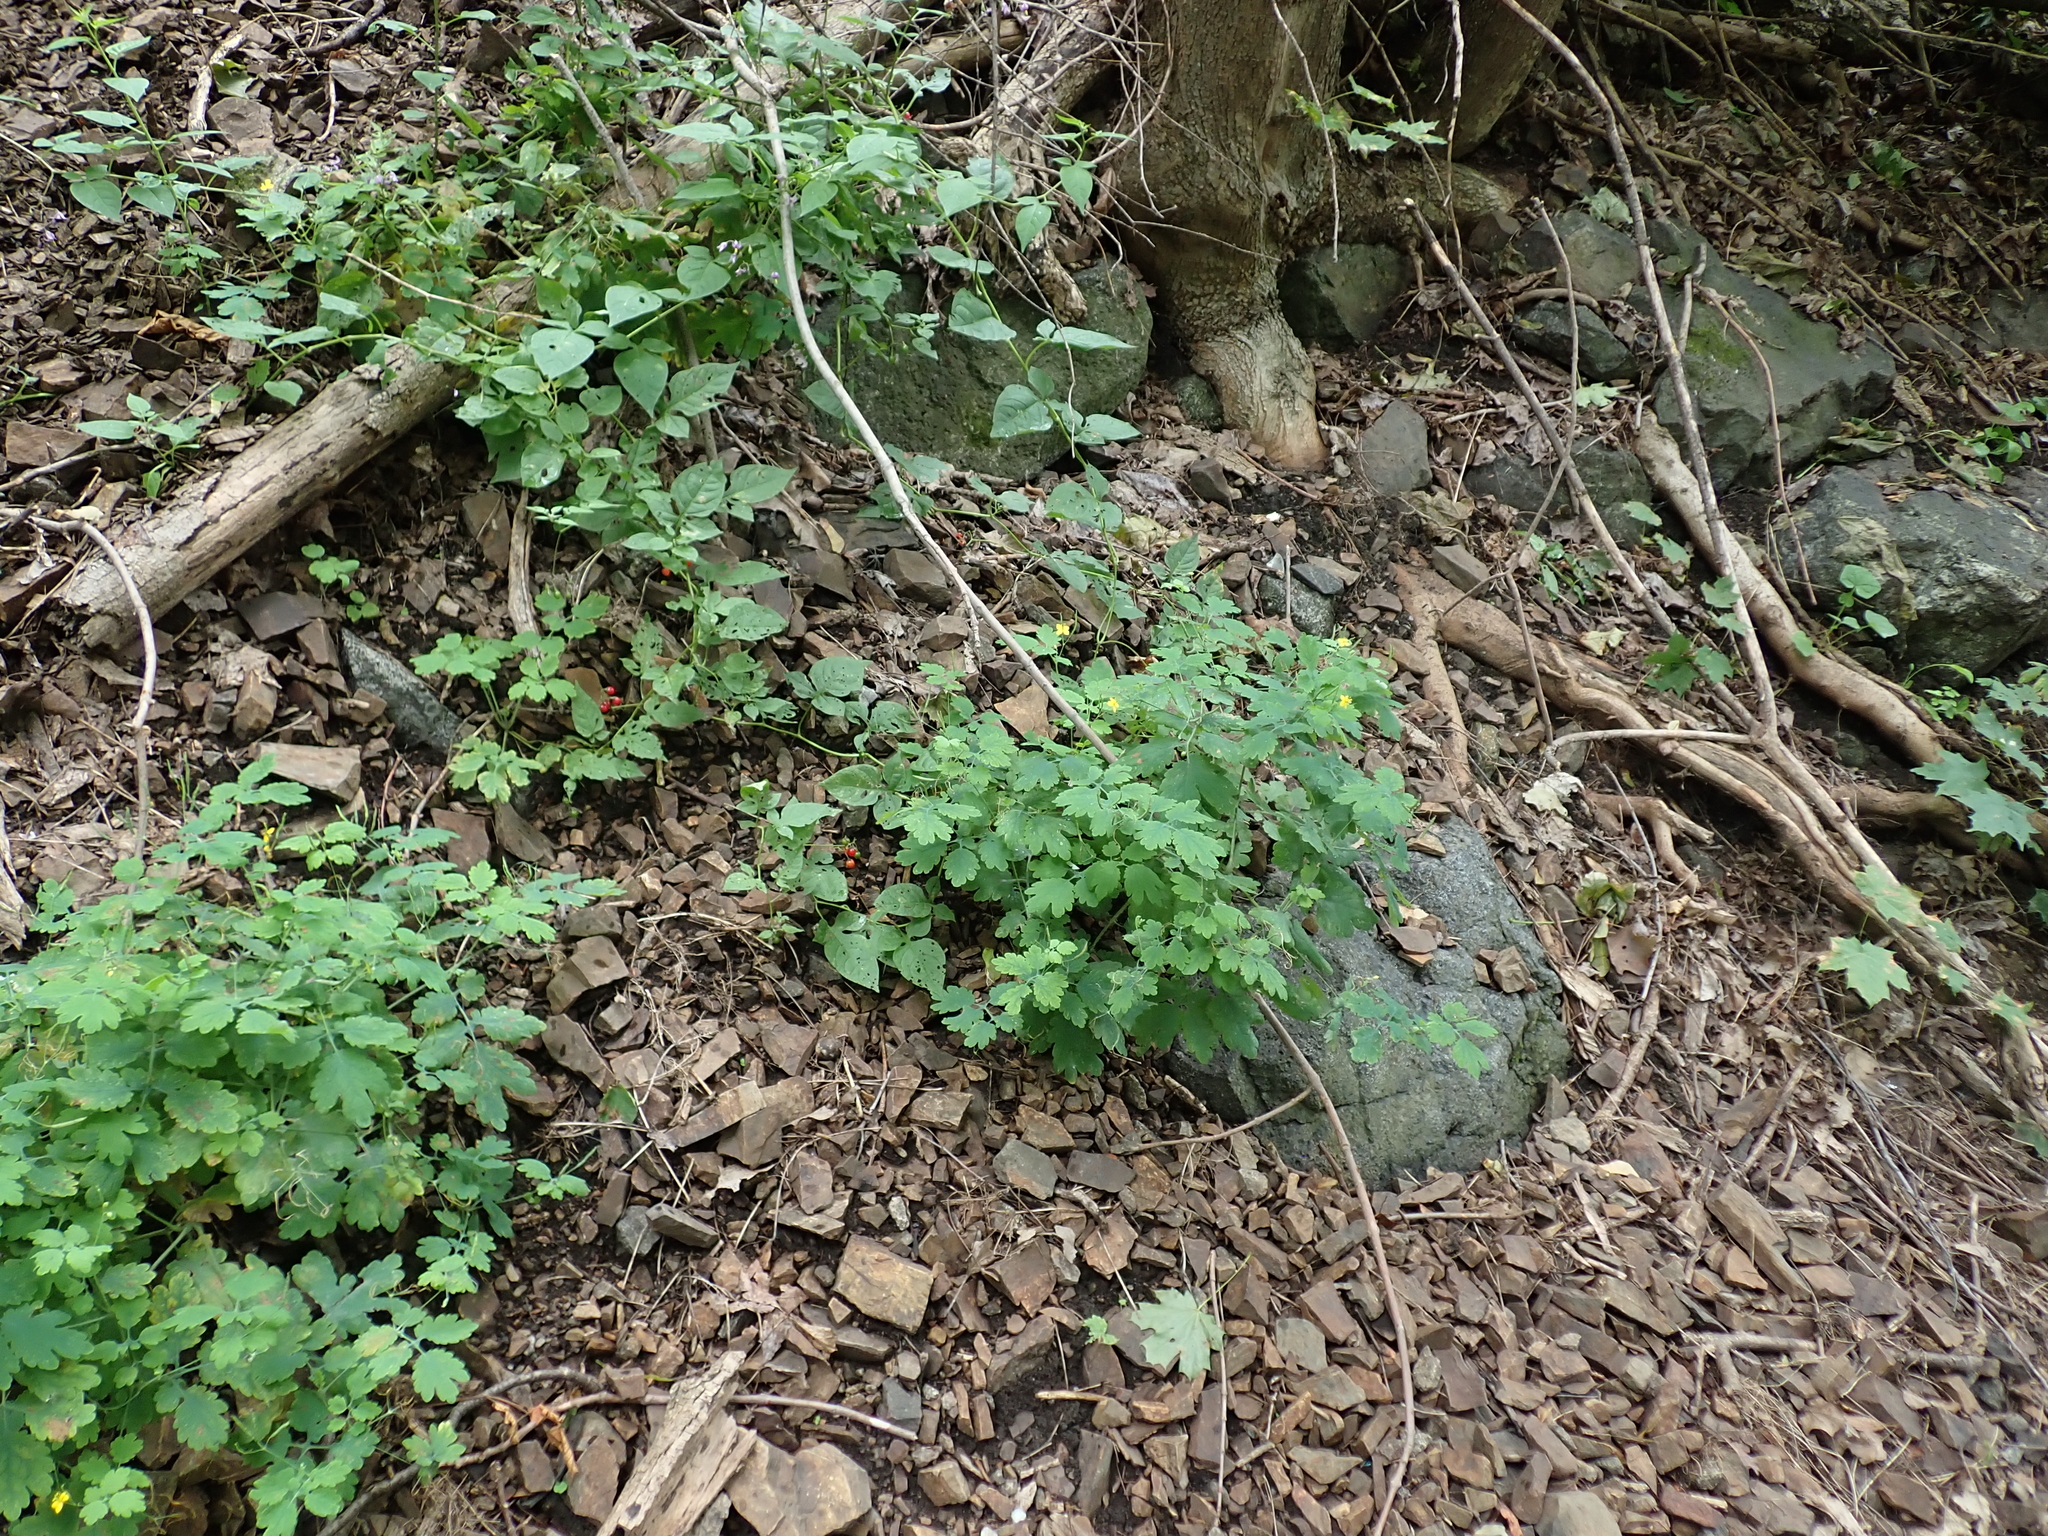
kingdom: Plantae
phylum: Tracheophyta
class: Magnoliopsida
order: Ranunculales
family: Papaveraceae
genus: Chelidonium
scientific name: Chelidonium majus
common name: Greater celandine
